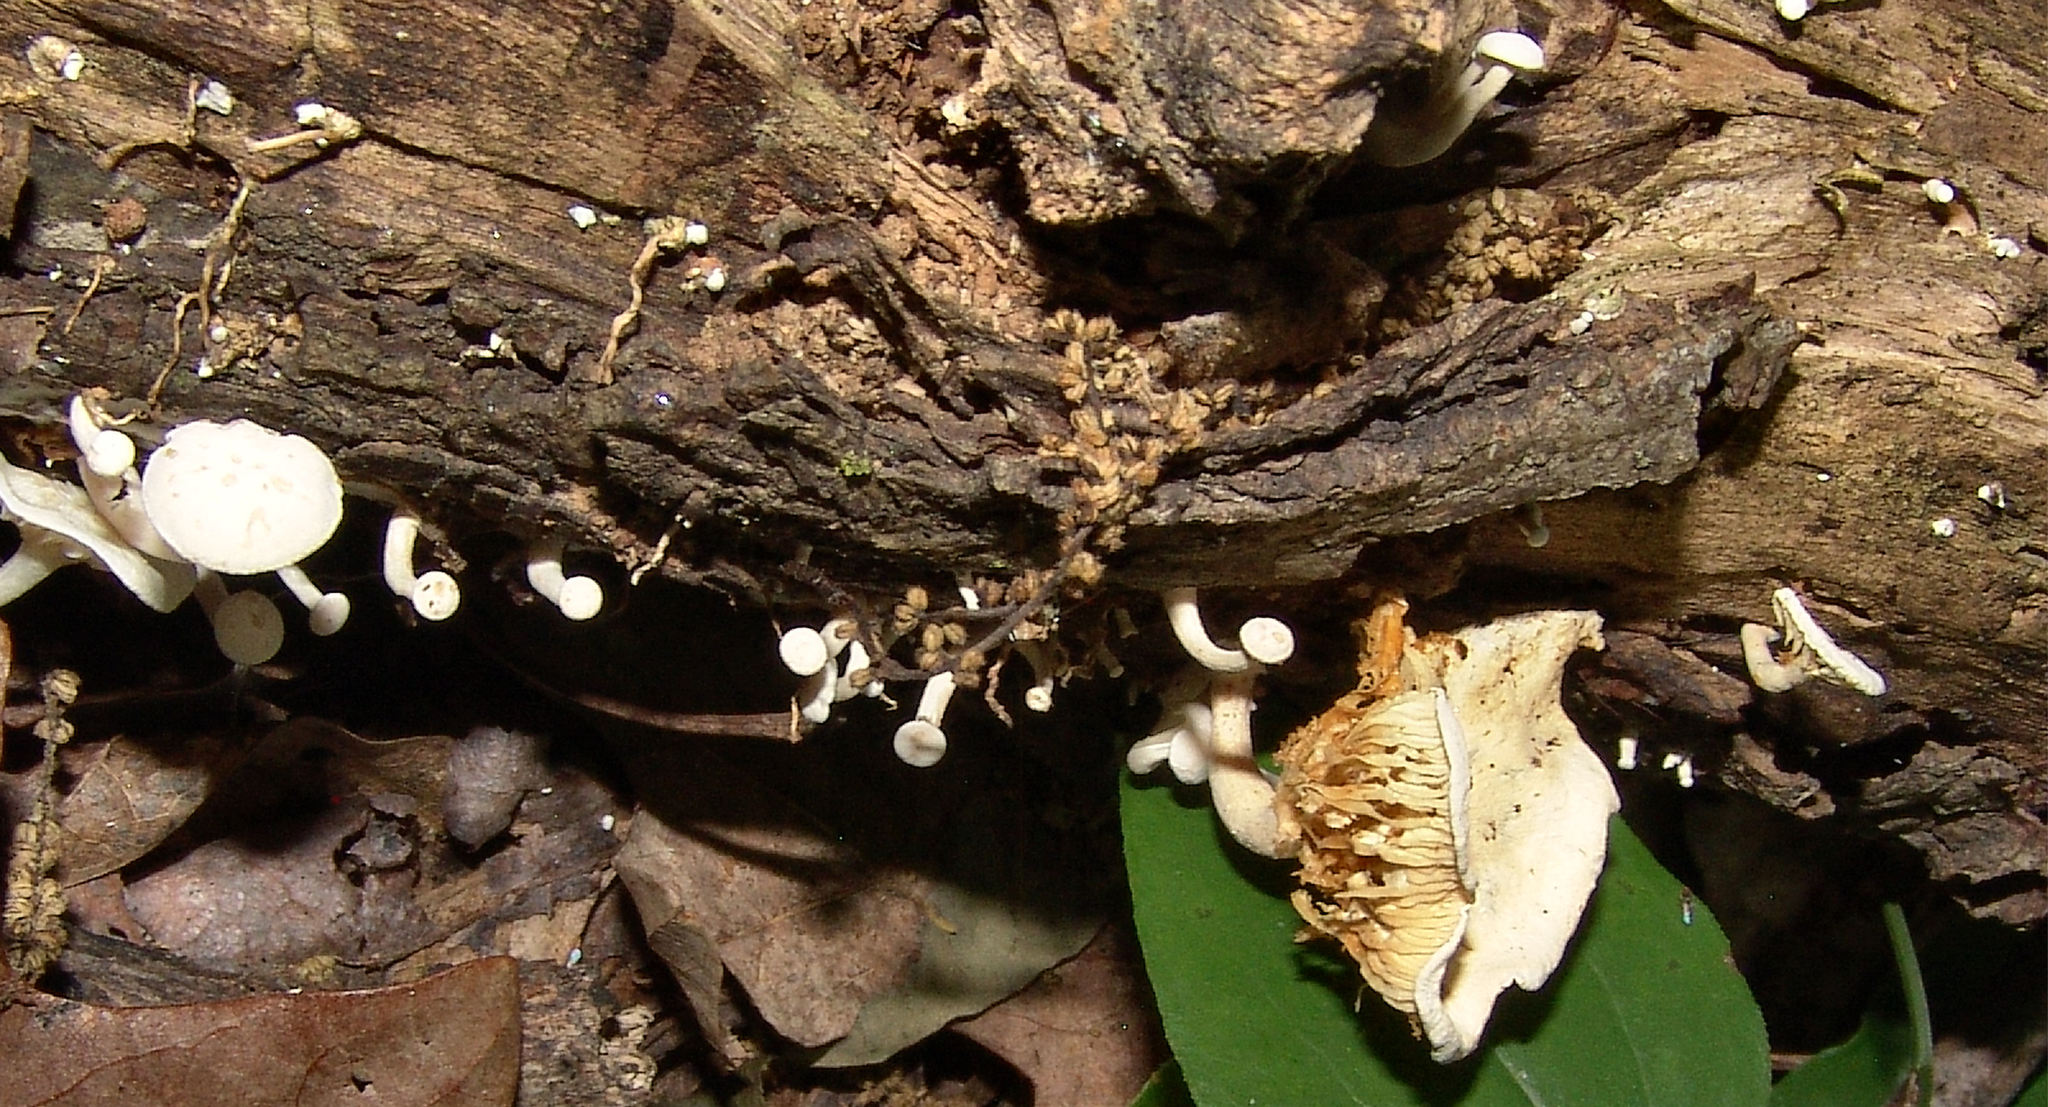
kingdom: Fungi
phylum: Basidiomycota
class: Agaricomycetes
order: Agaricales
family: Tricholomataceae
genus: Clitocybe
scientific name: Clitocybe peralbida
